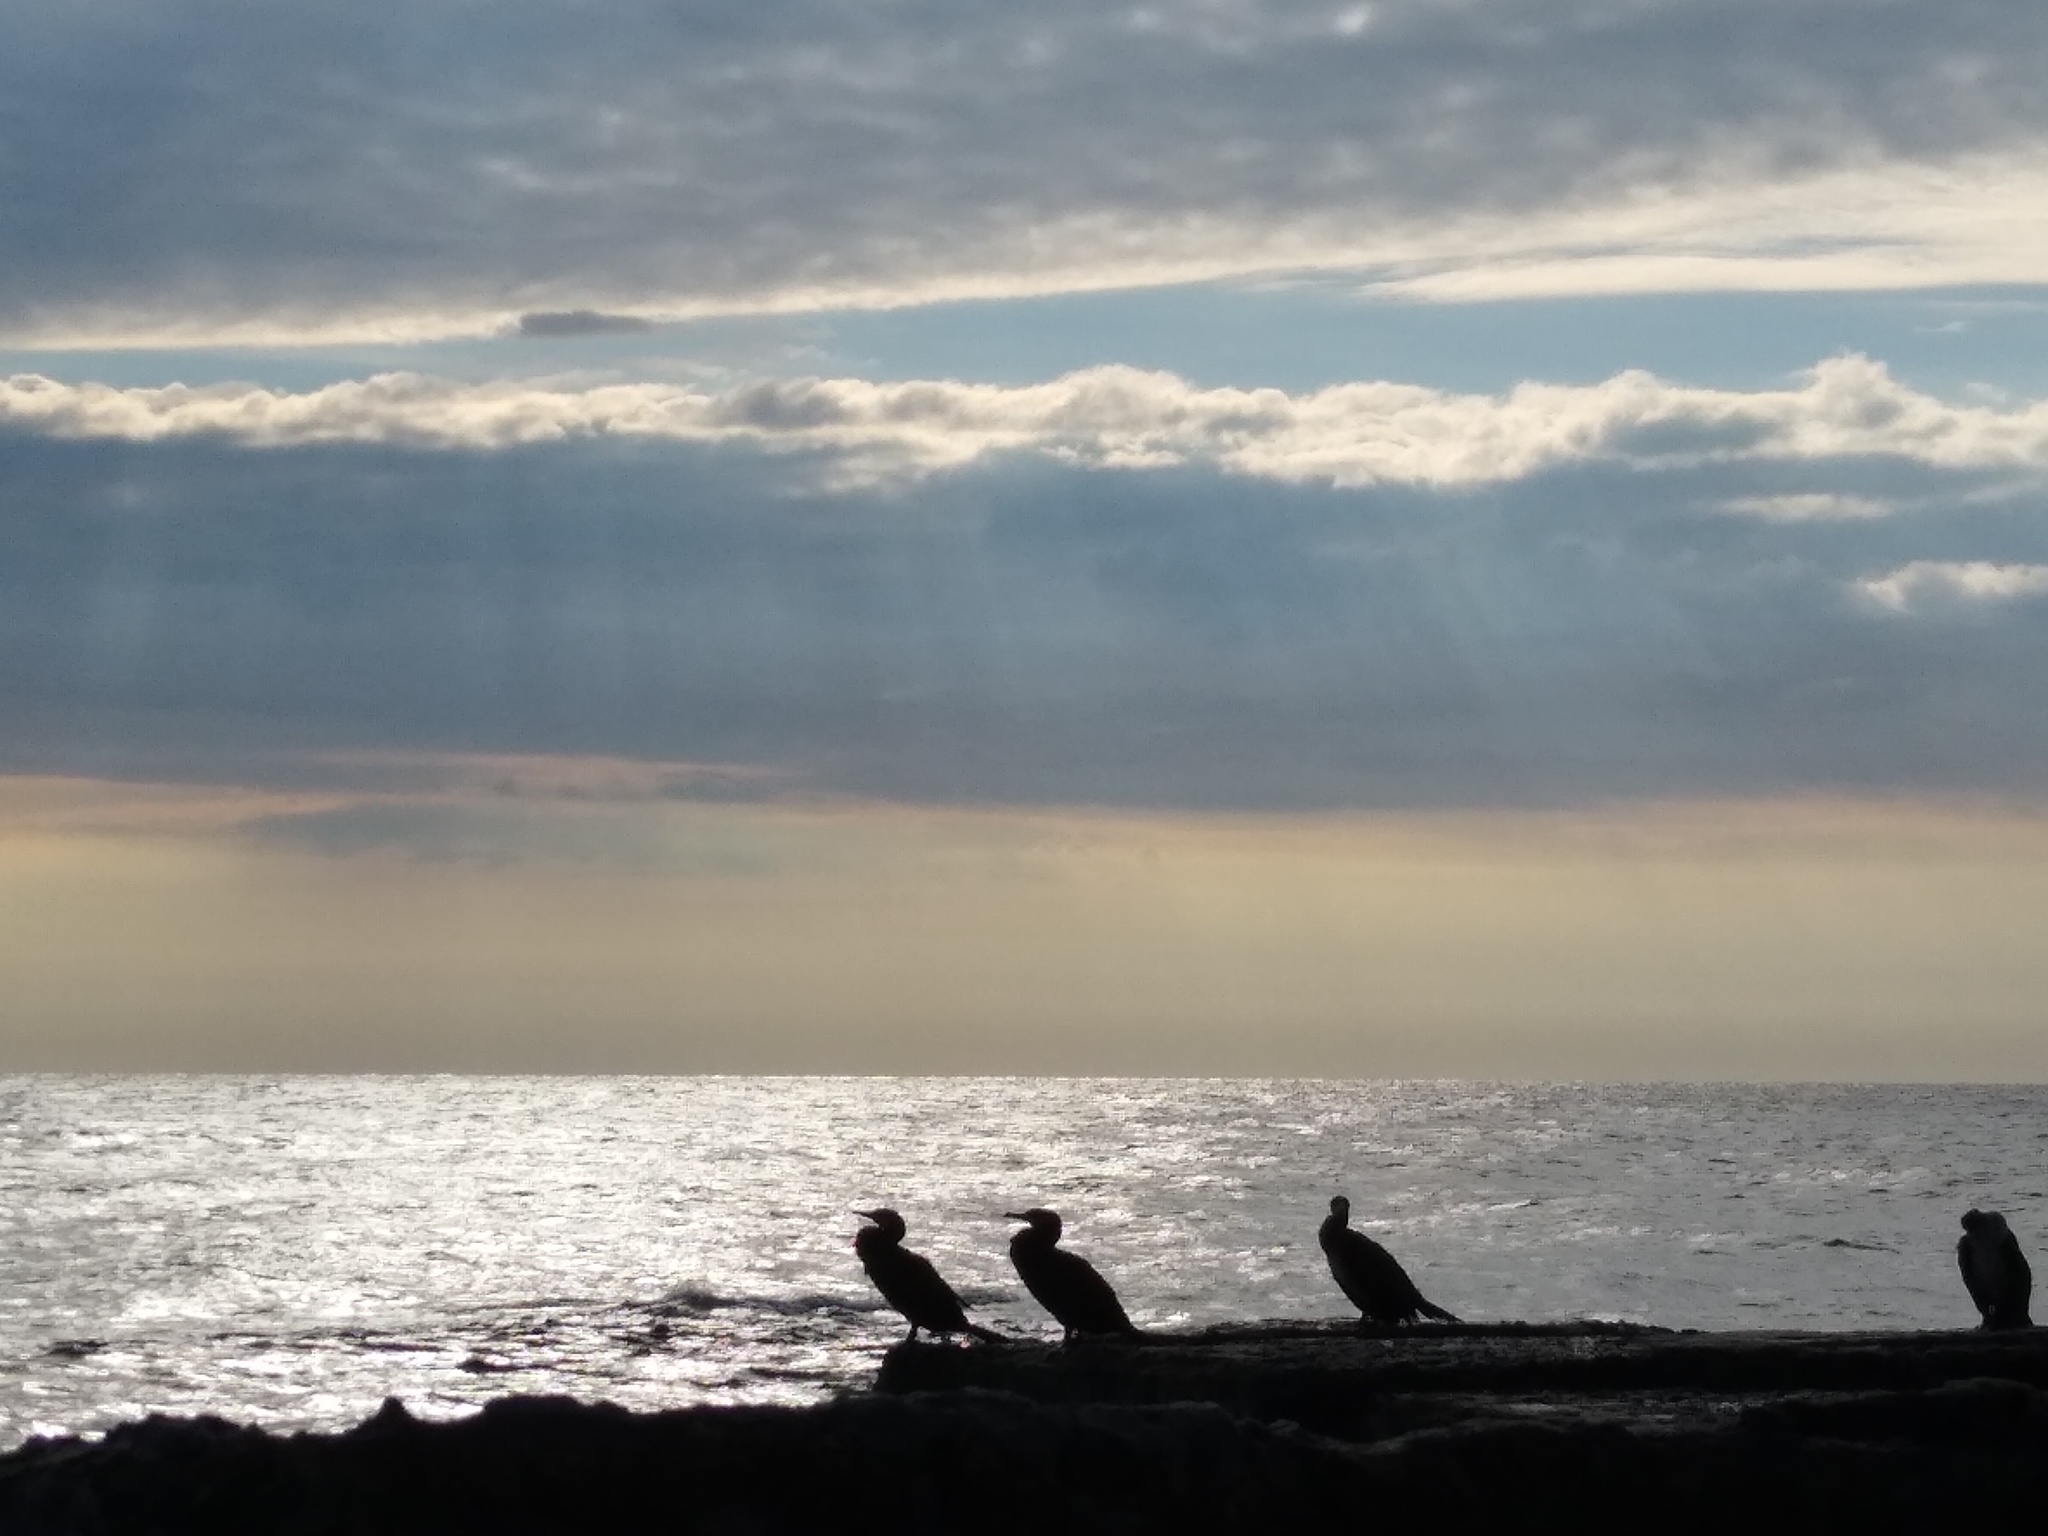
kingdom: Animalia
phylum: Chordata
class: Aves
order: Suliformes
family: Phalacrocoracidae
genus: Phalacrocorax
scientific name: Phalacrocorax carbo
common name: Great cormorant
